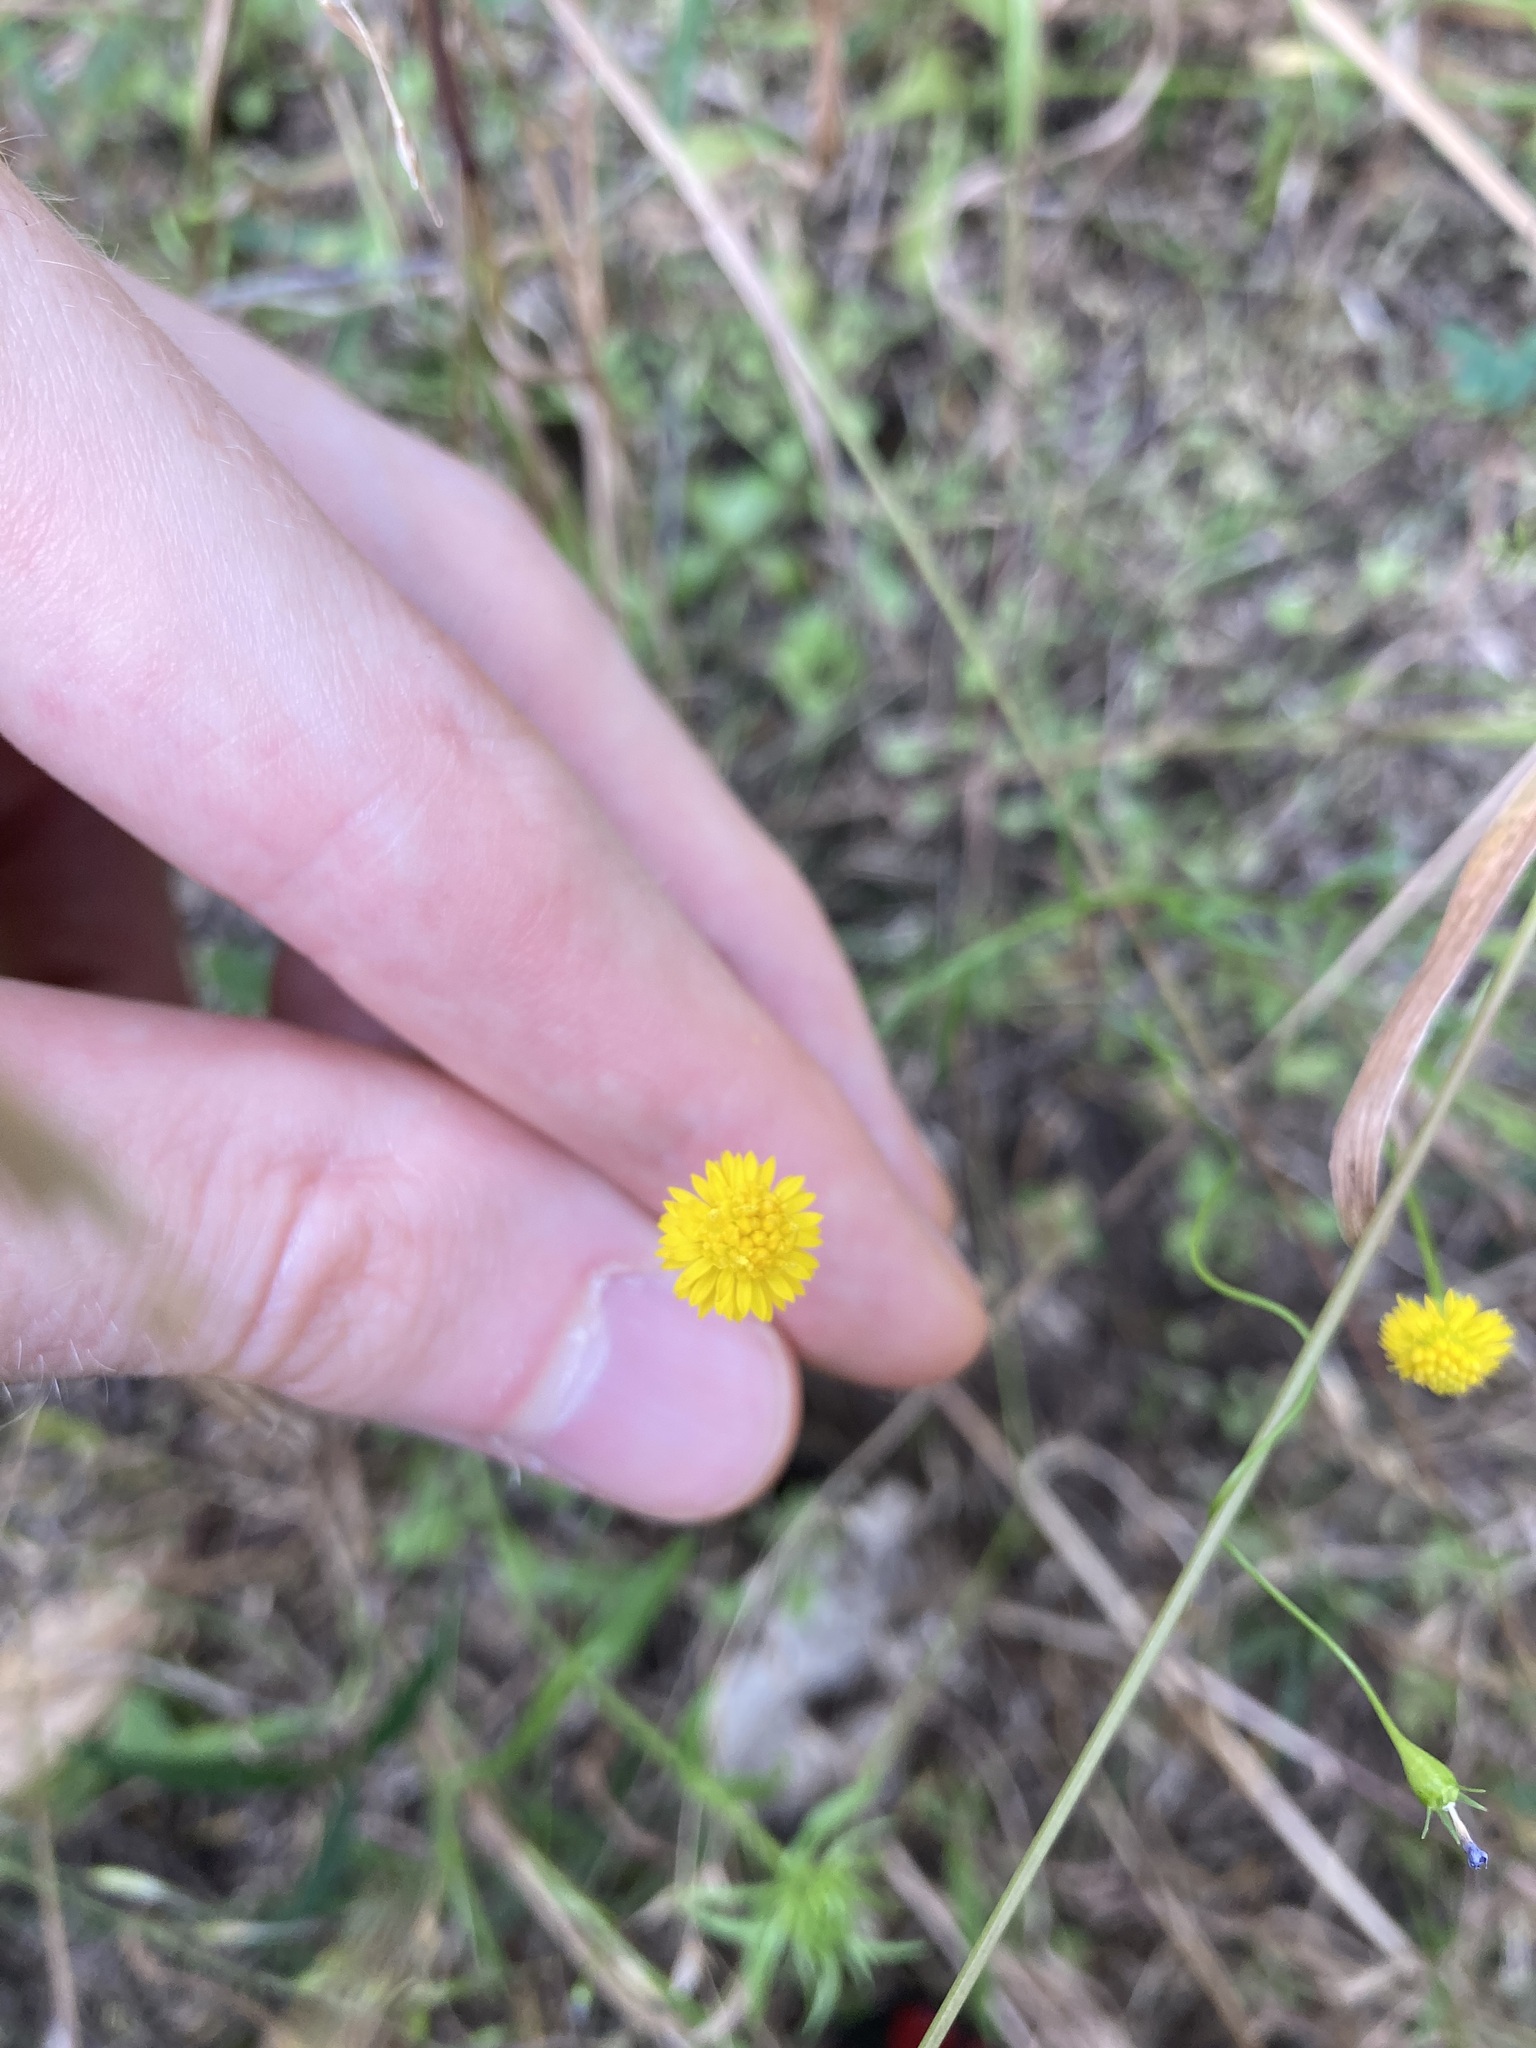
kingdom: Plantae
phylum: Tracheophyta
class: Magnoliopsida
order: Asterales
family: Asteraceae
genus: Calotis
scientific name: Calotis lappulacea
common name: Bur daisy
